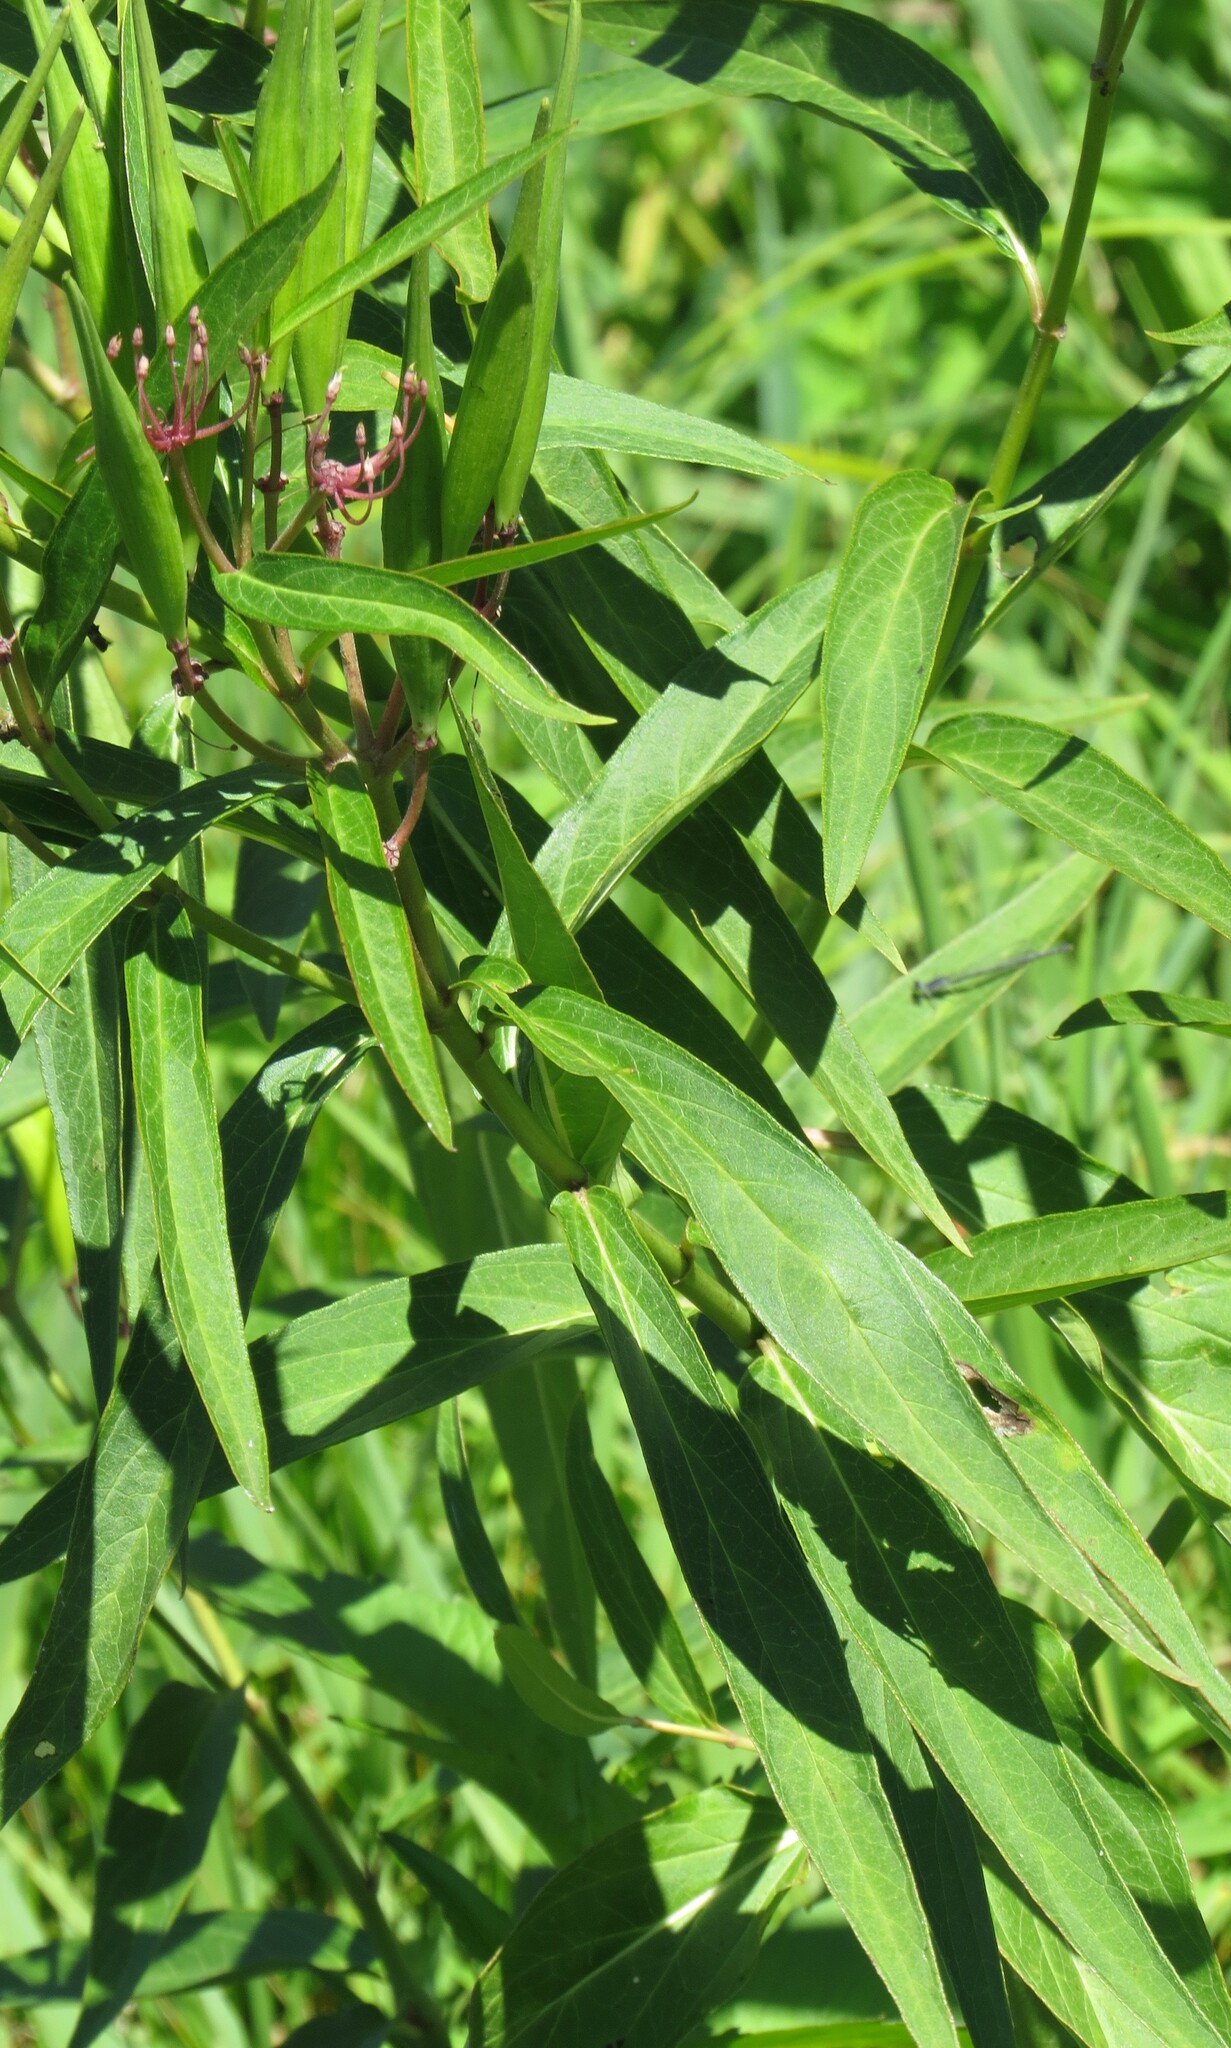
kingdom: Plantae
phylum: Tracheophyta
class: Magnoliopsida
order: Gentianales
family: Apocynaceae
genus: Asclepias
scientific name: Asclepias incarnata
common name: Swamp milkweed
